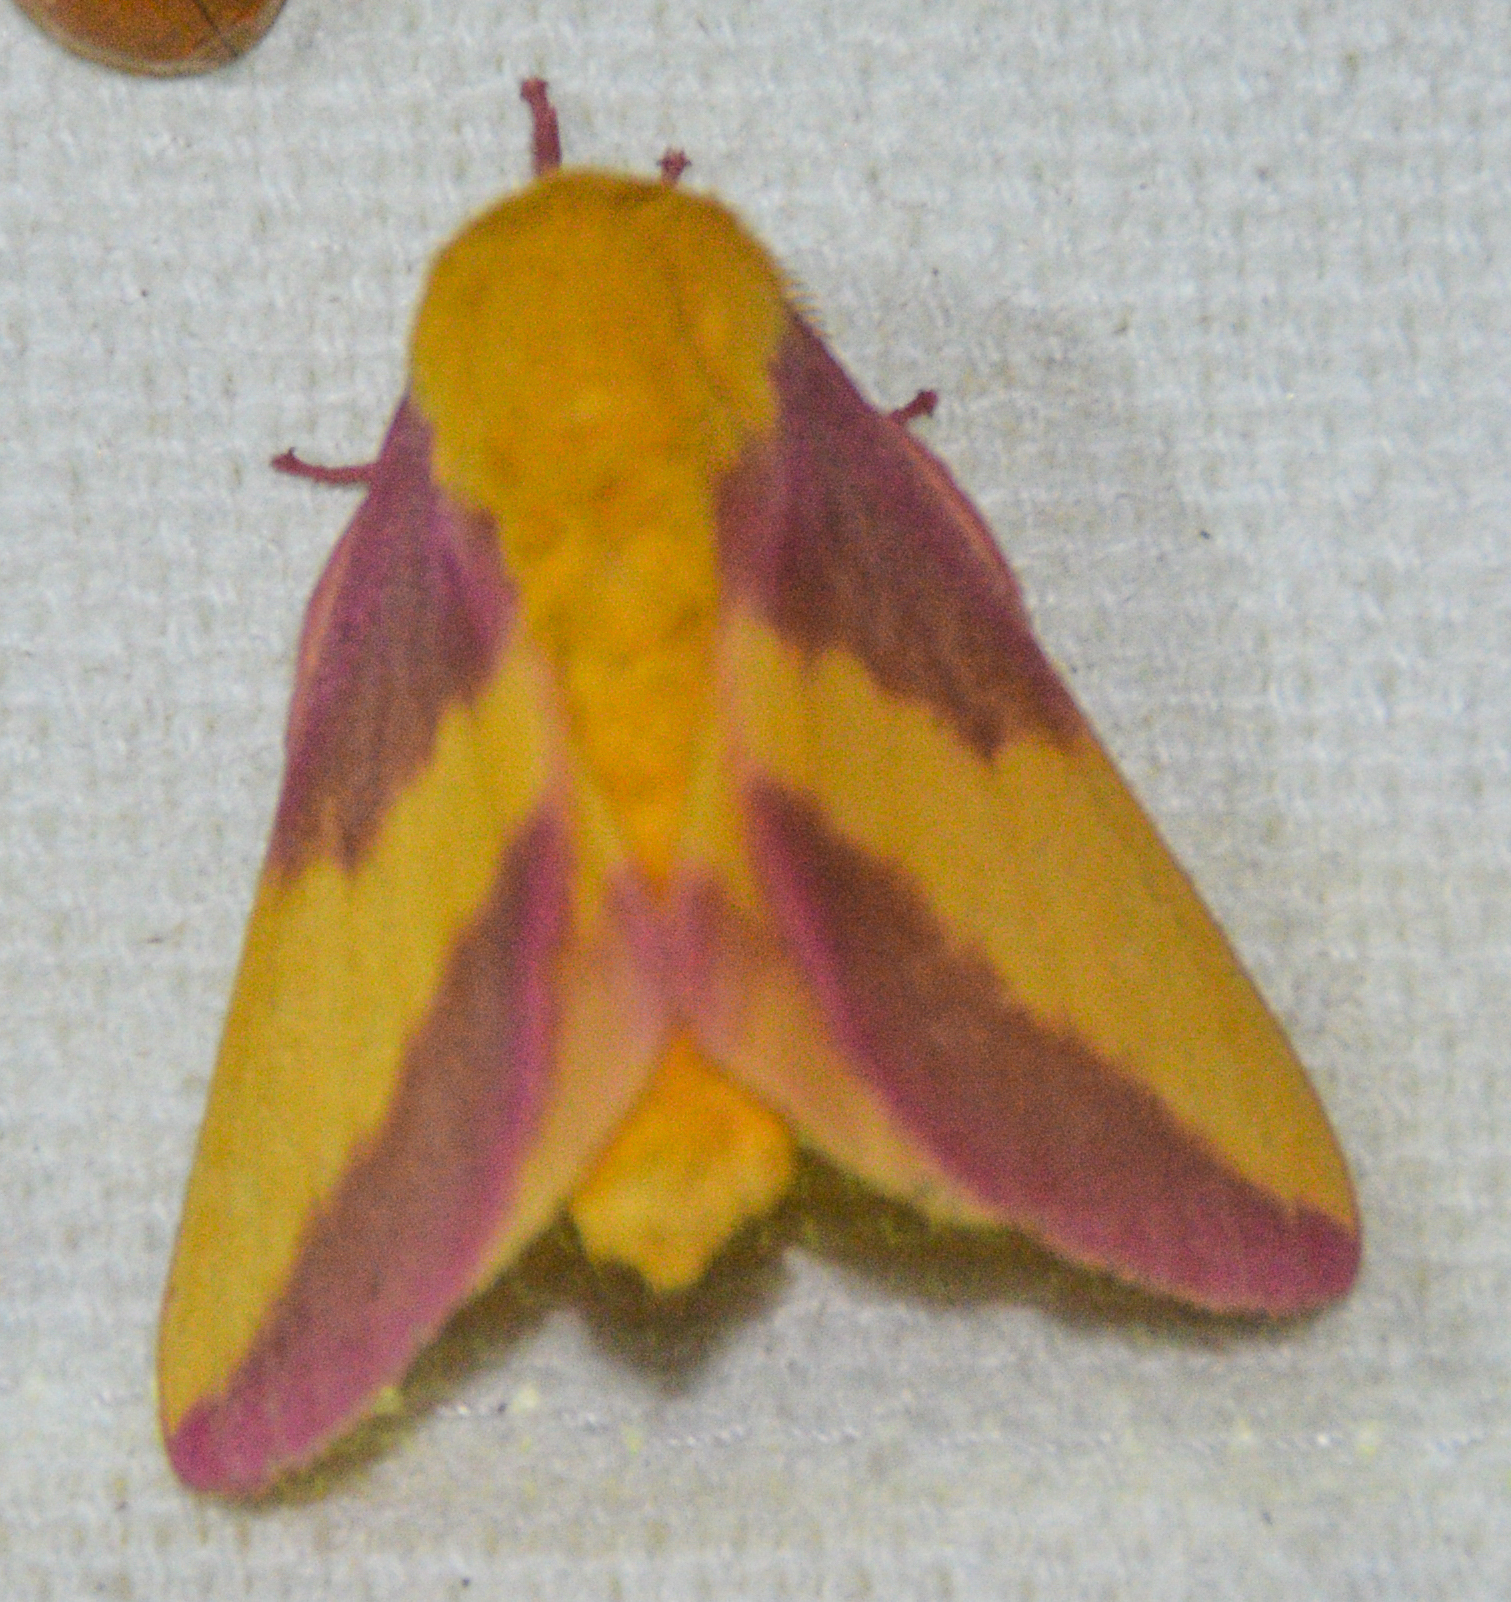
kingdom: Animalia
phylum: Arthropoda
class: Insecta
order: Lepidoptera
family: Saturniidae
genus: Dryocampa
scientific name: Dryocampa rubicunda
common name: Rosy maple moth
